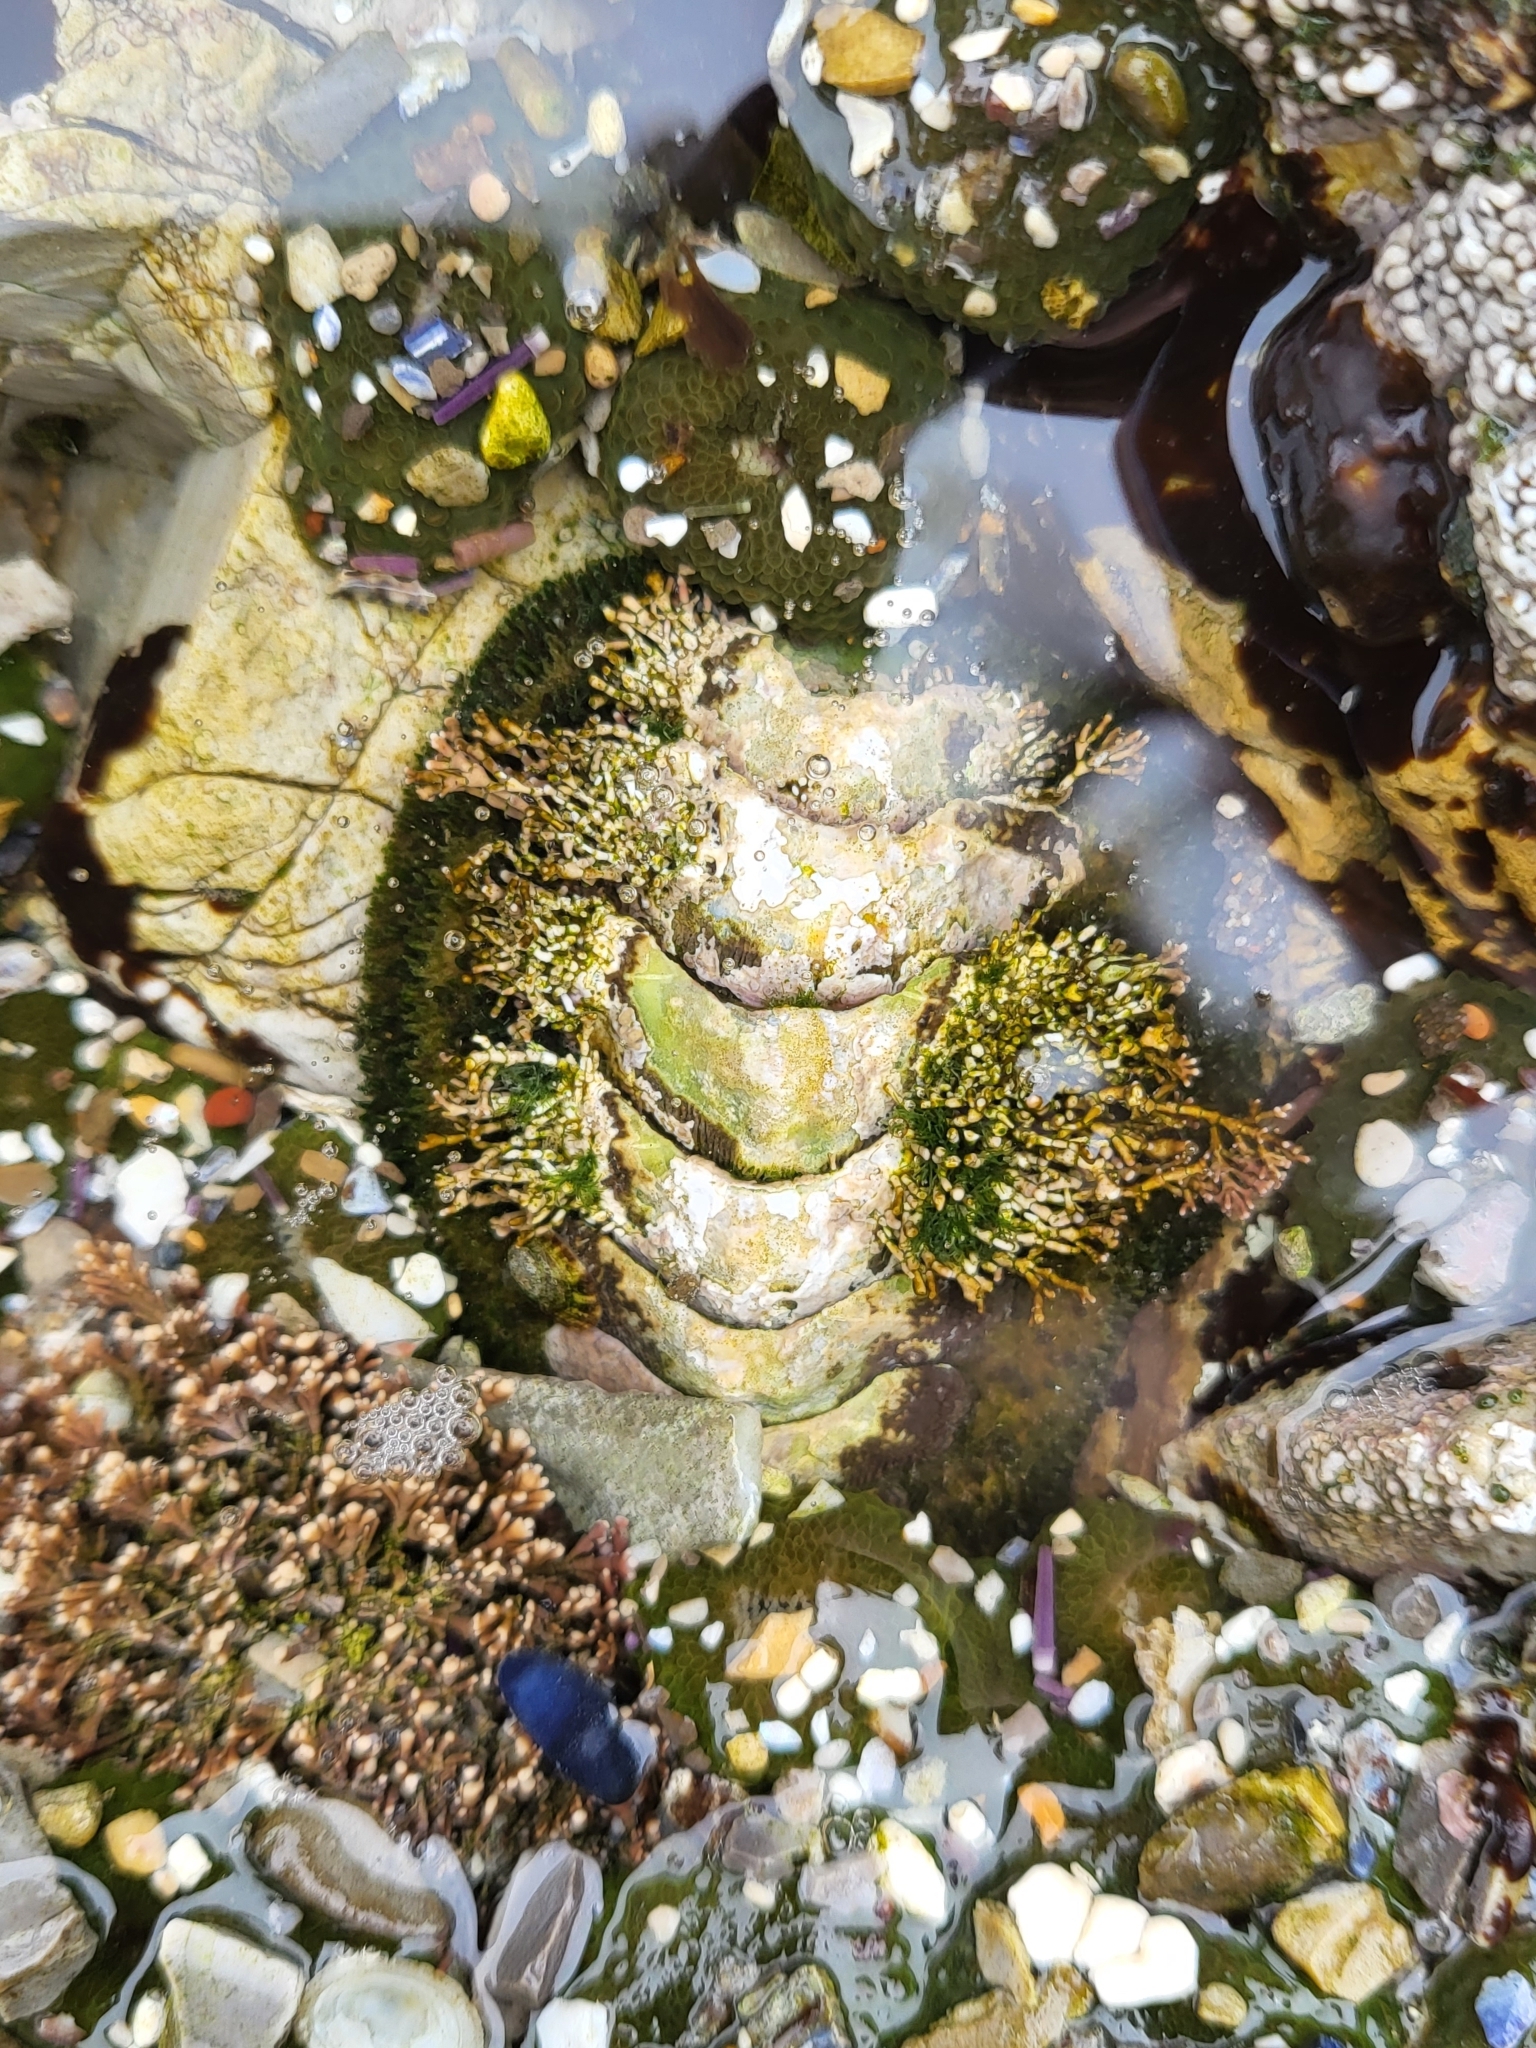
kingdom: Animalia
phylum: Mollusca
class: Polyplacophora
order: Chitonida
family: Mopaliidae
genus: Mopalia
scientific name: Mopalia muscosa
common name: Mossy chiton
